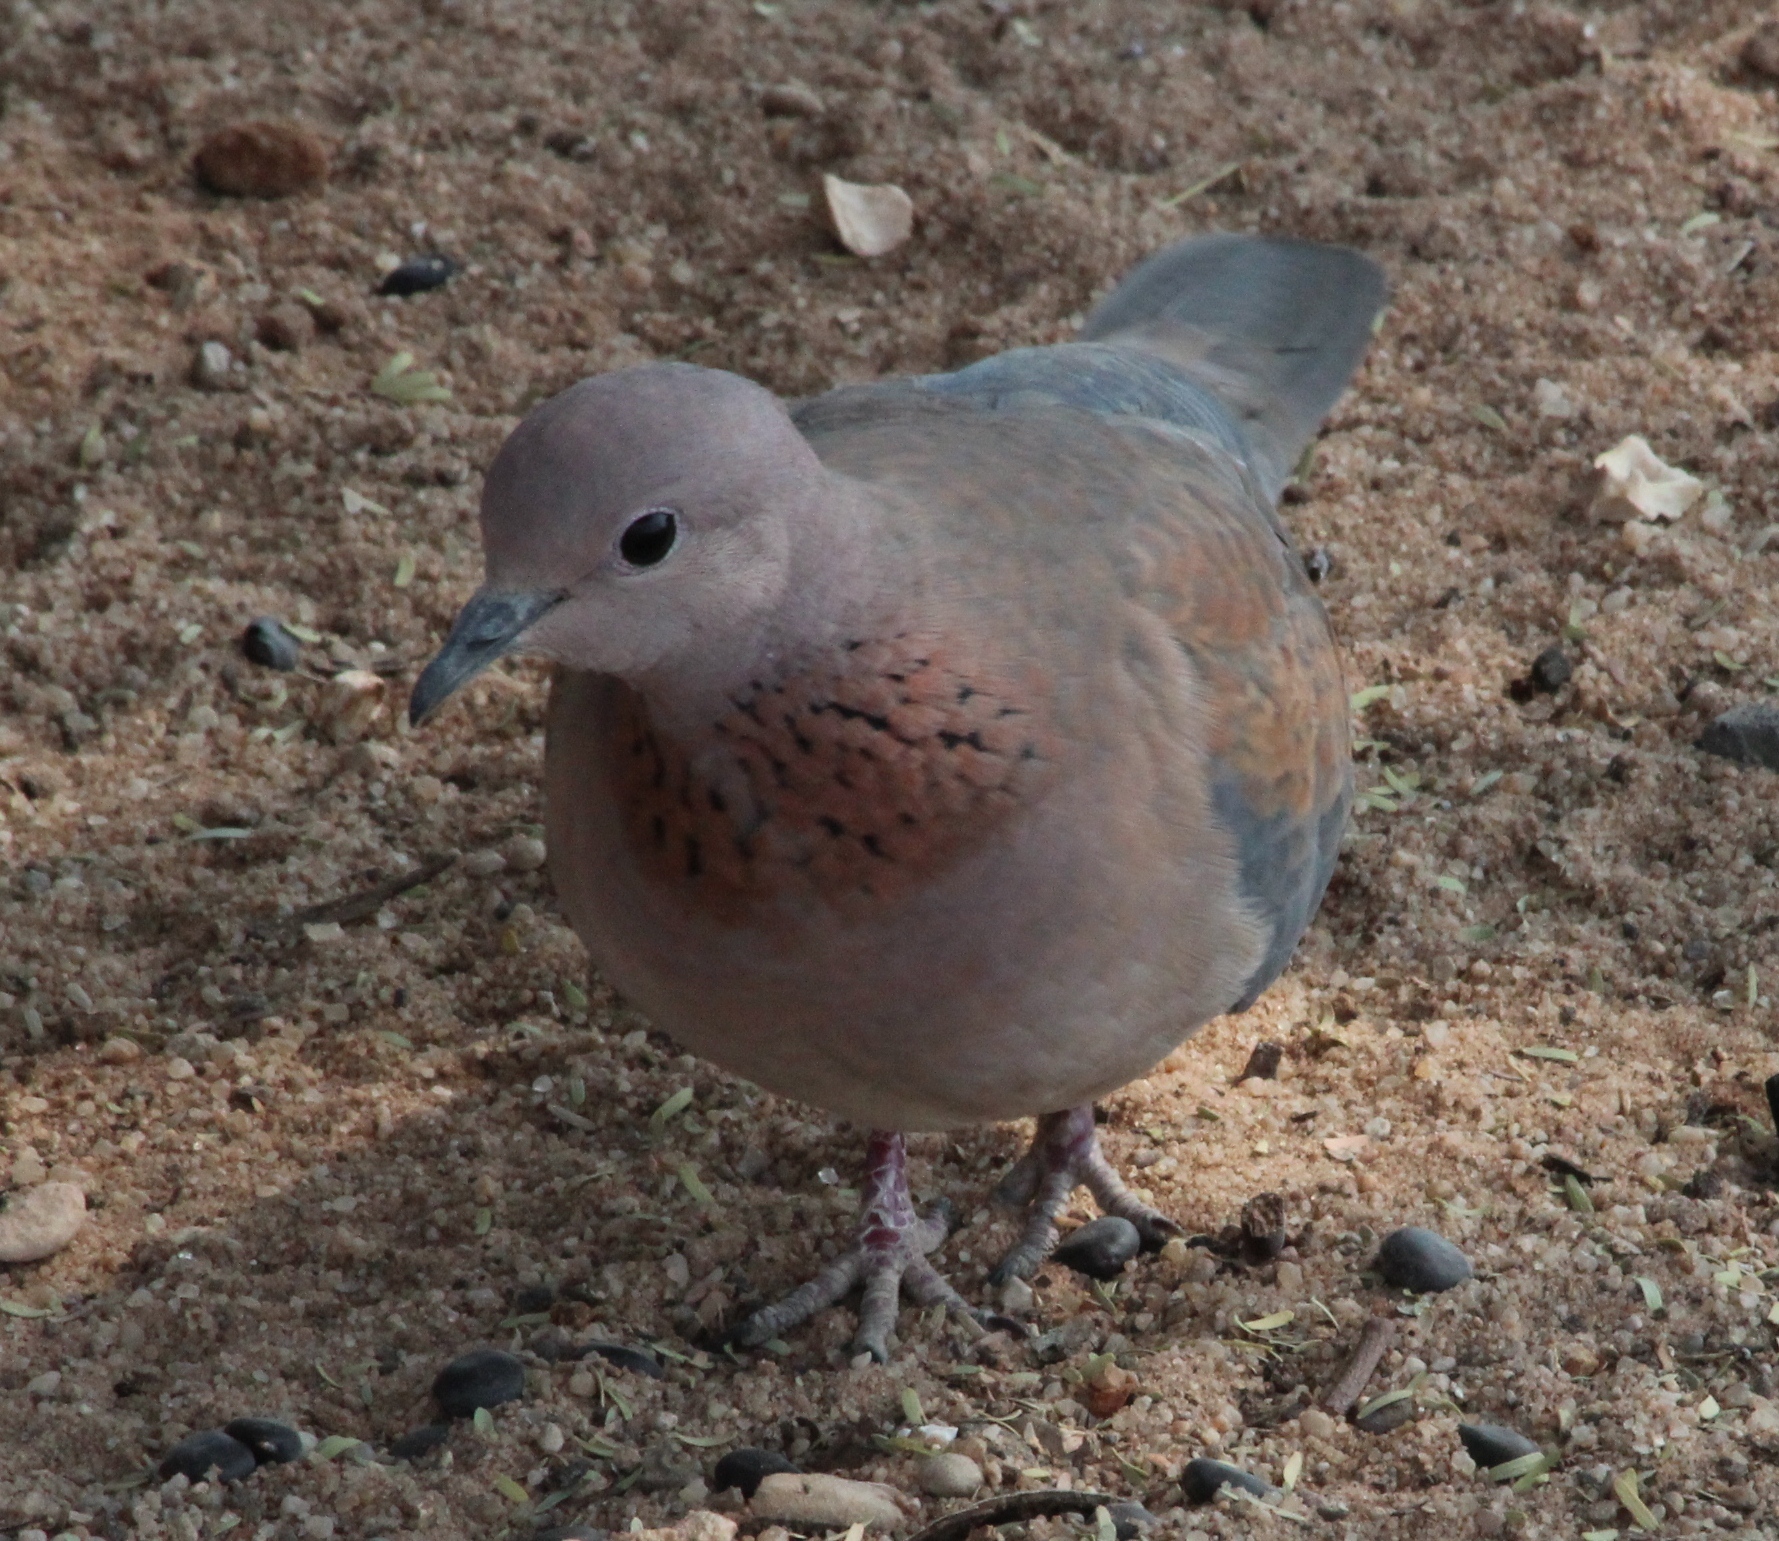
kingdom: Animalia
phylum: Chordata
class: Aves
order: Columbiformes
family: Columbidae
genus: Spilopelia
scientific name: Spilopelia senegalensis
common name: Laughing dove
